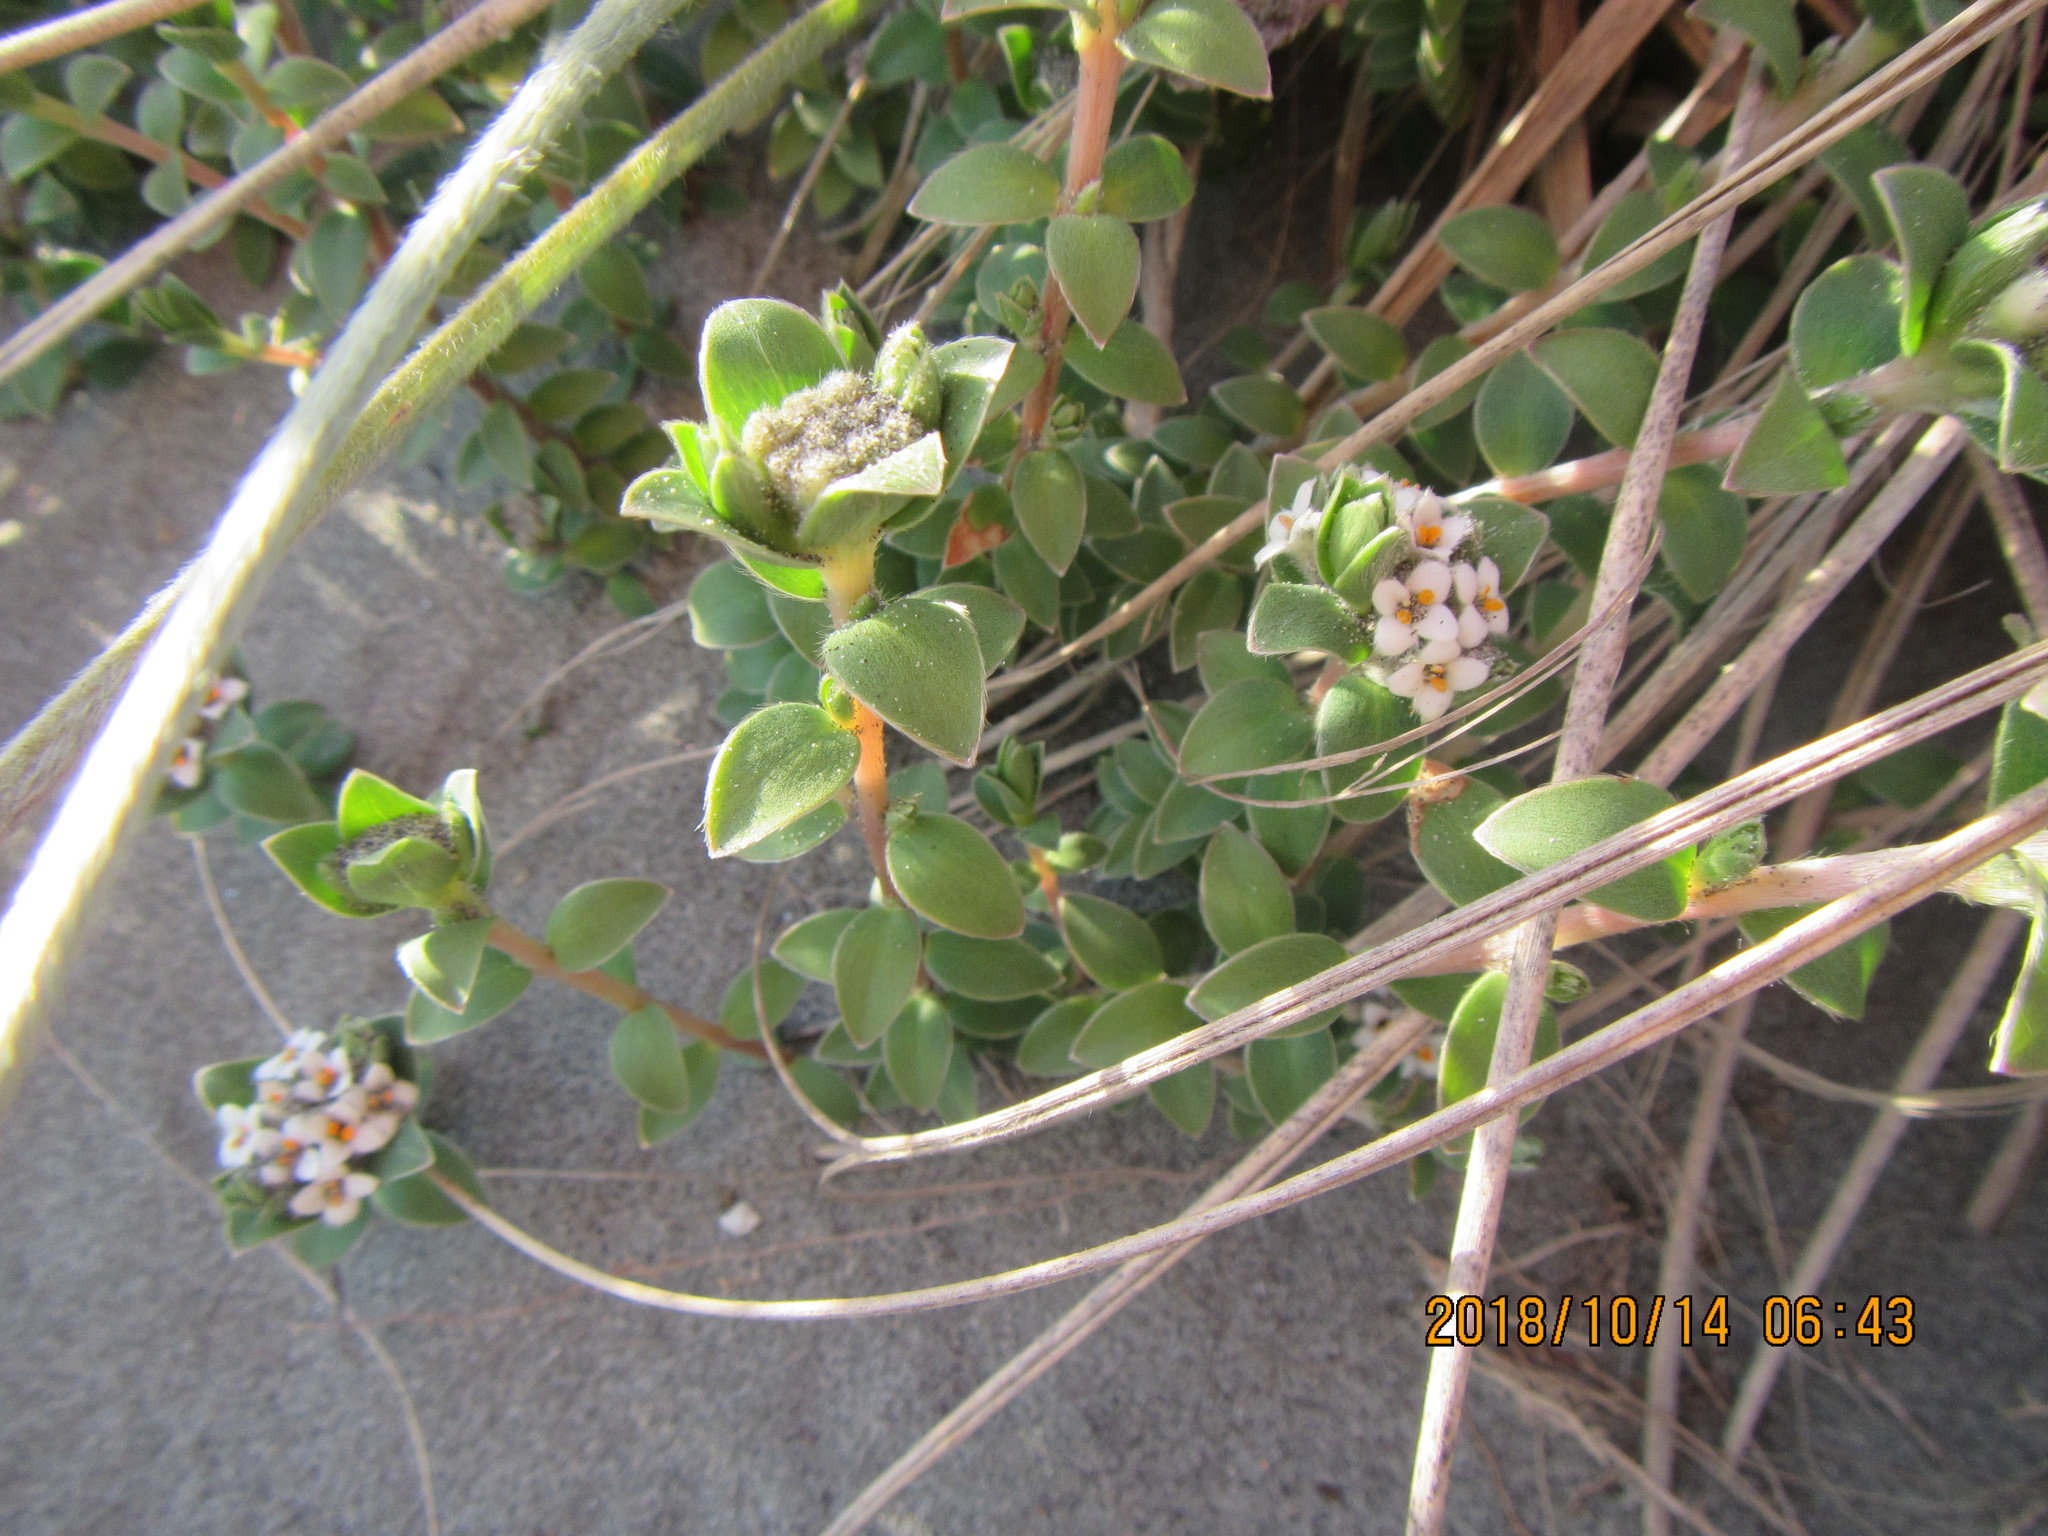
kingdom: Plantae
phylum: Tracheophyta
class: Magnoliopsida
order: Malvales
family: Thymelaeaceae
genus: Pimelea
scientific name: Pimelea villosa
